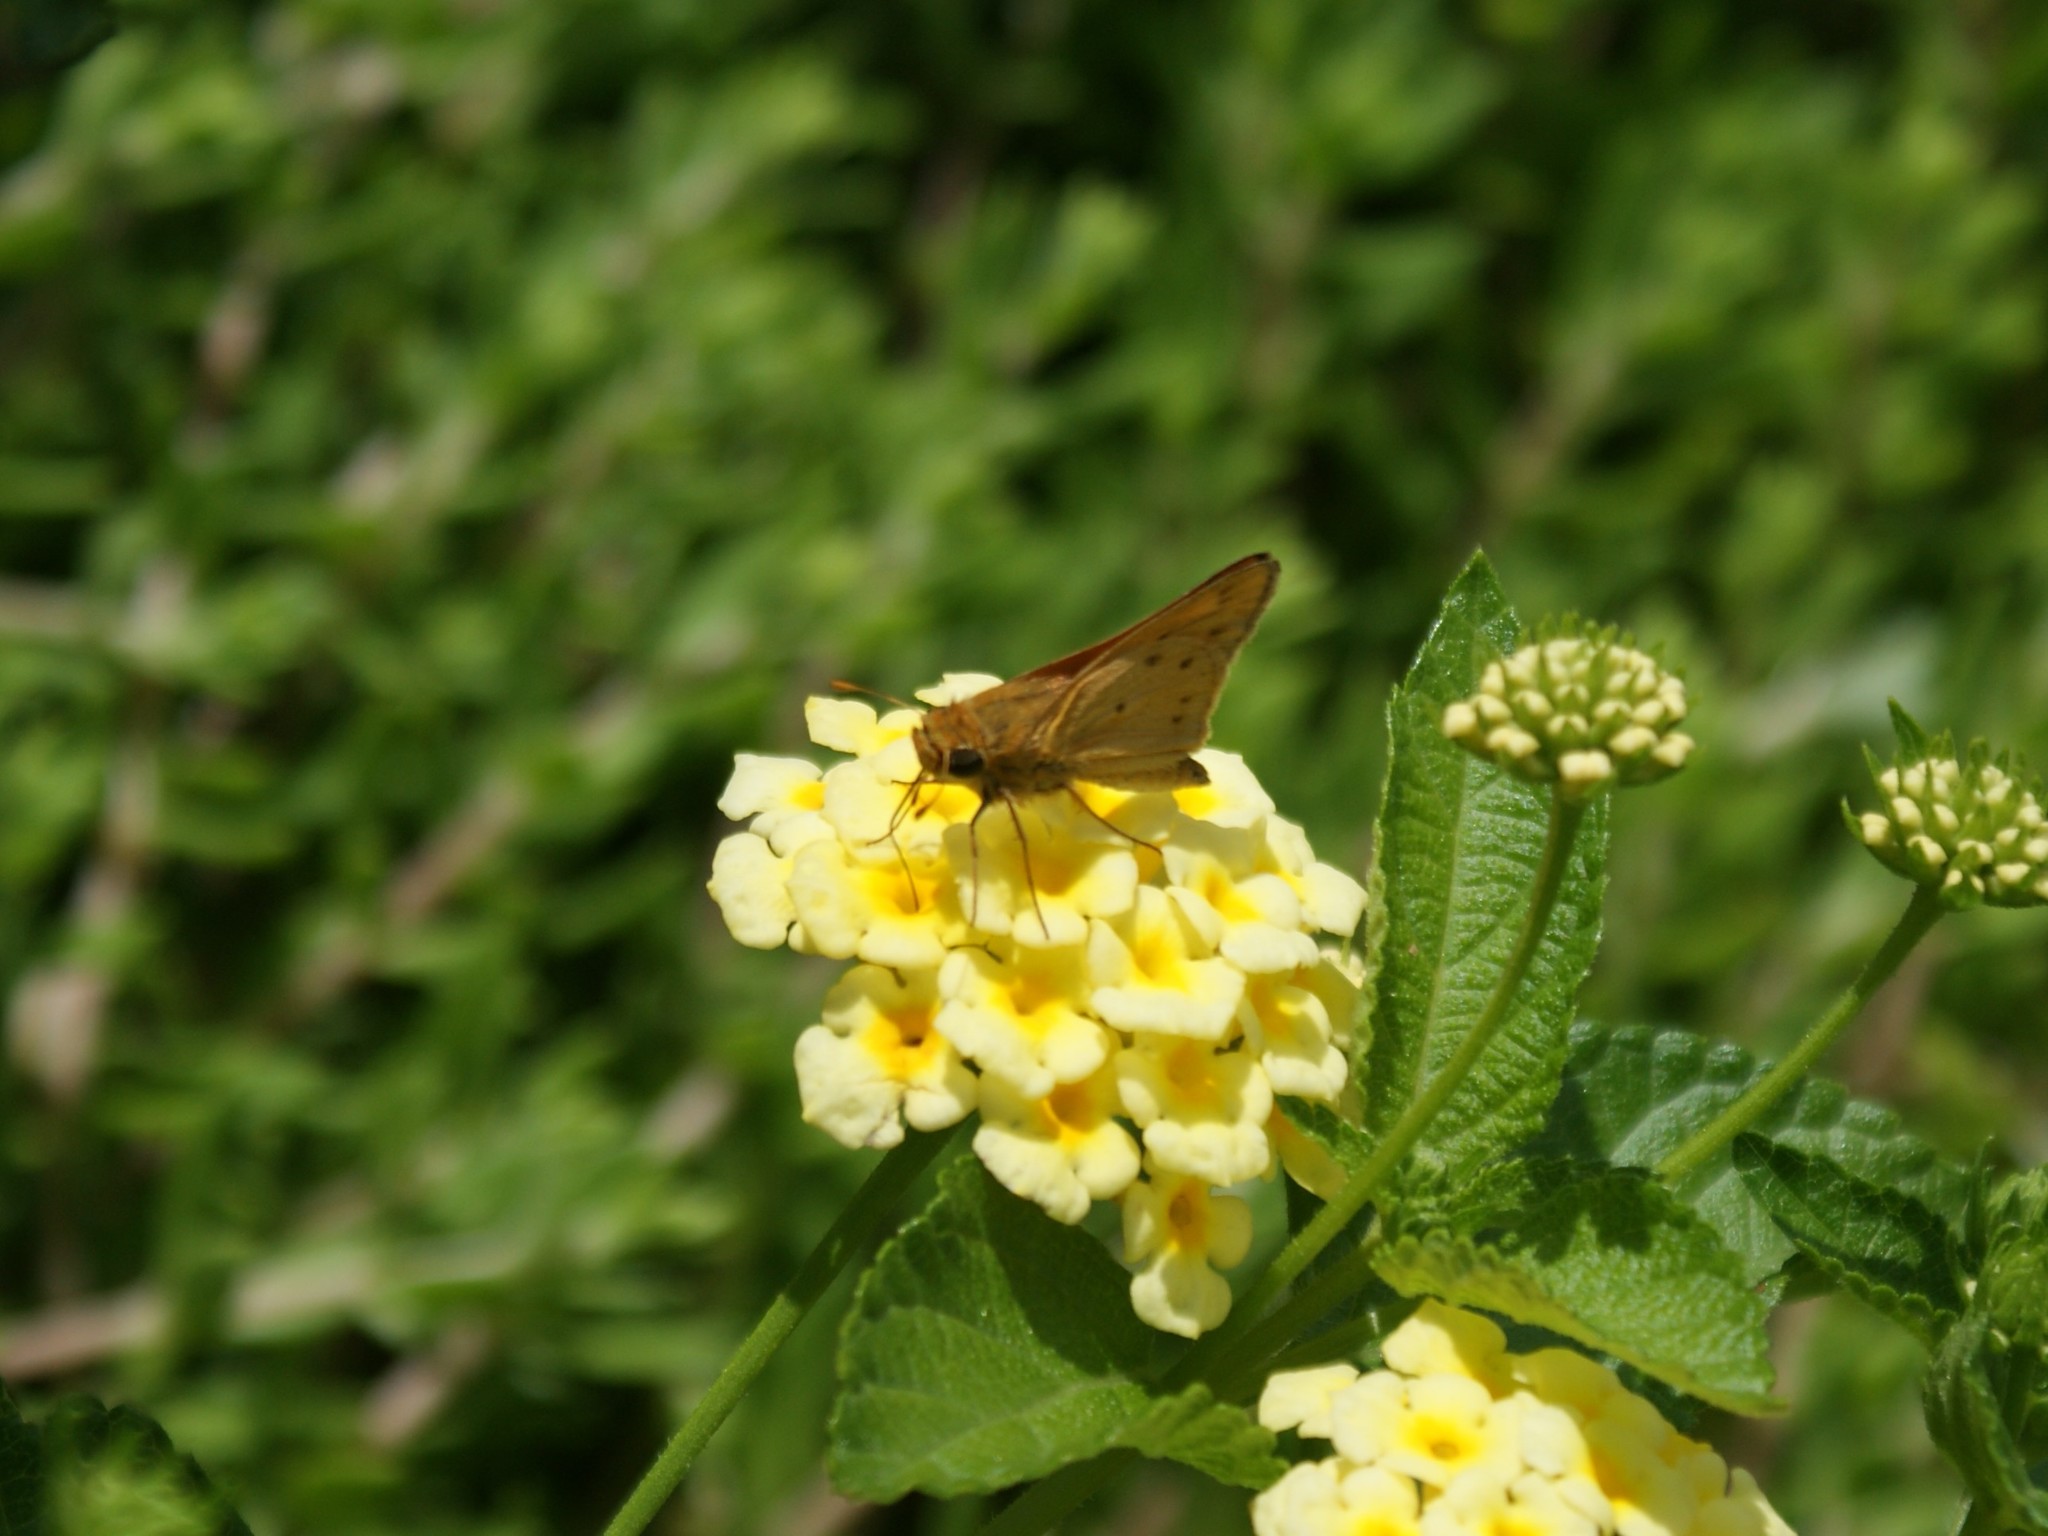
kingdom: Animalia
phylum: Arthropoda
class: Insecta
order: Lepidoptera
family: Hesperiidae
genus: Hylephila
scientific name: Hylephila phyleus
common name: Fiery skipper
